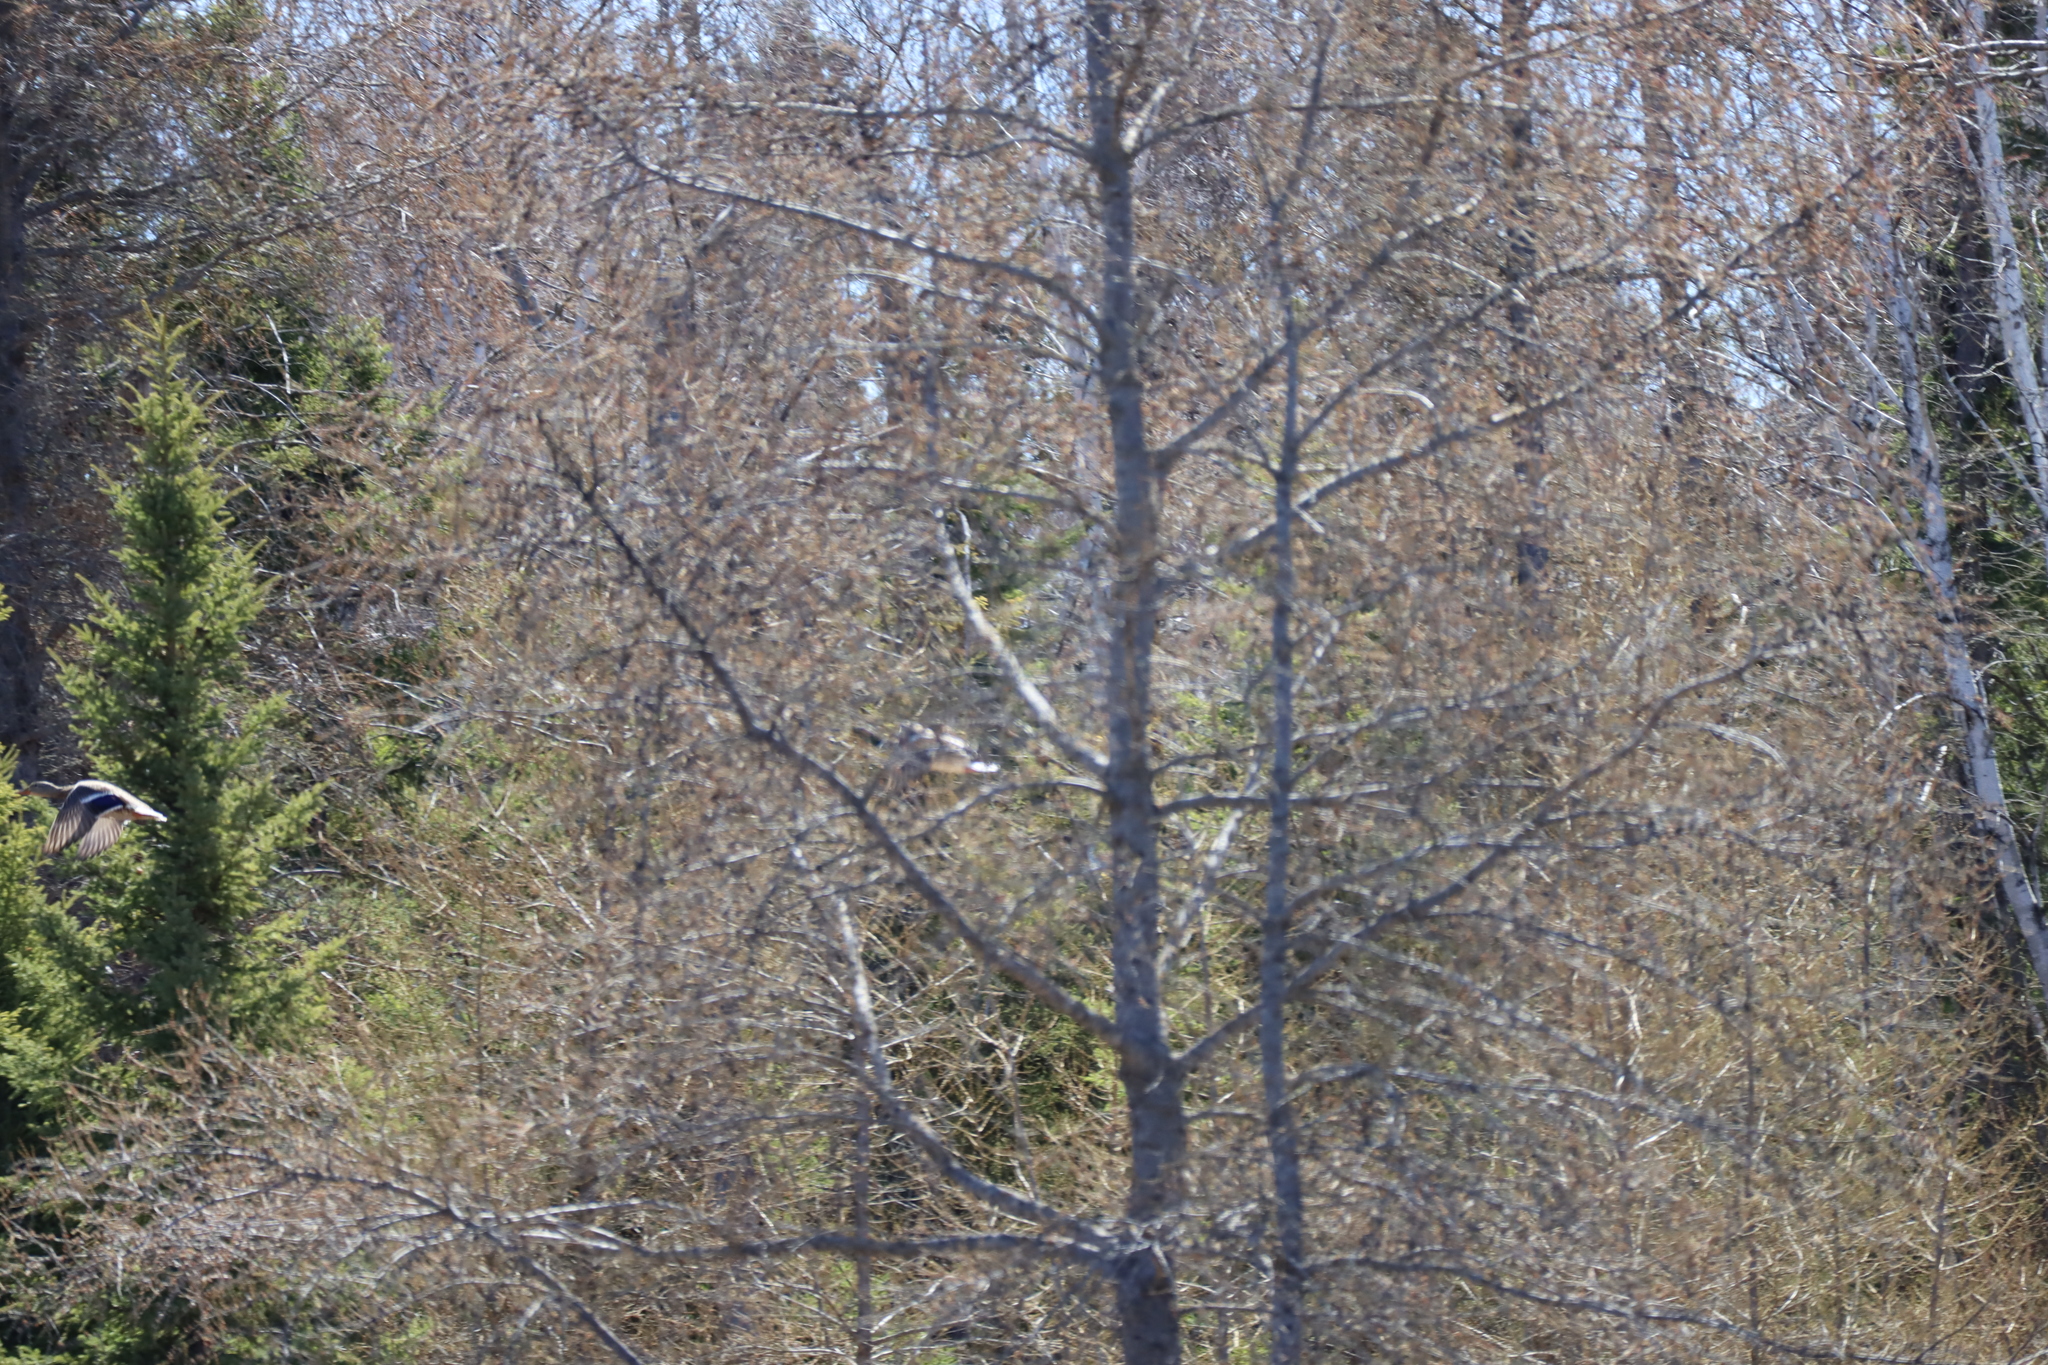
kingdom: Plantae
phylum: Tracheophyta
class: Pinopsida
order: Pinales
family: Pinaceae
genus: Larix
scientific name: Larix laricina
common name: American larch
